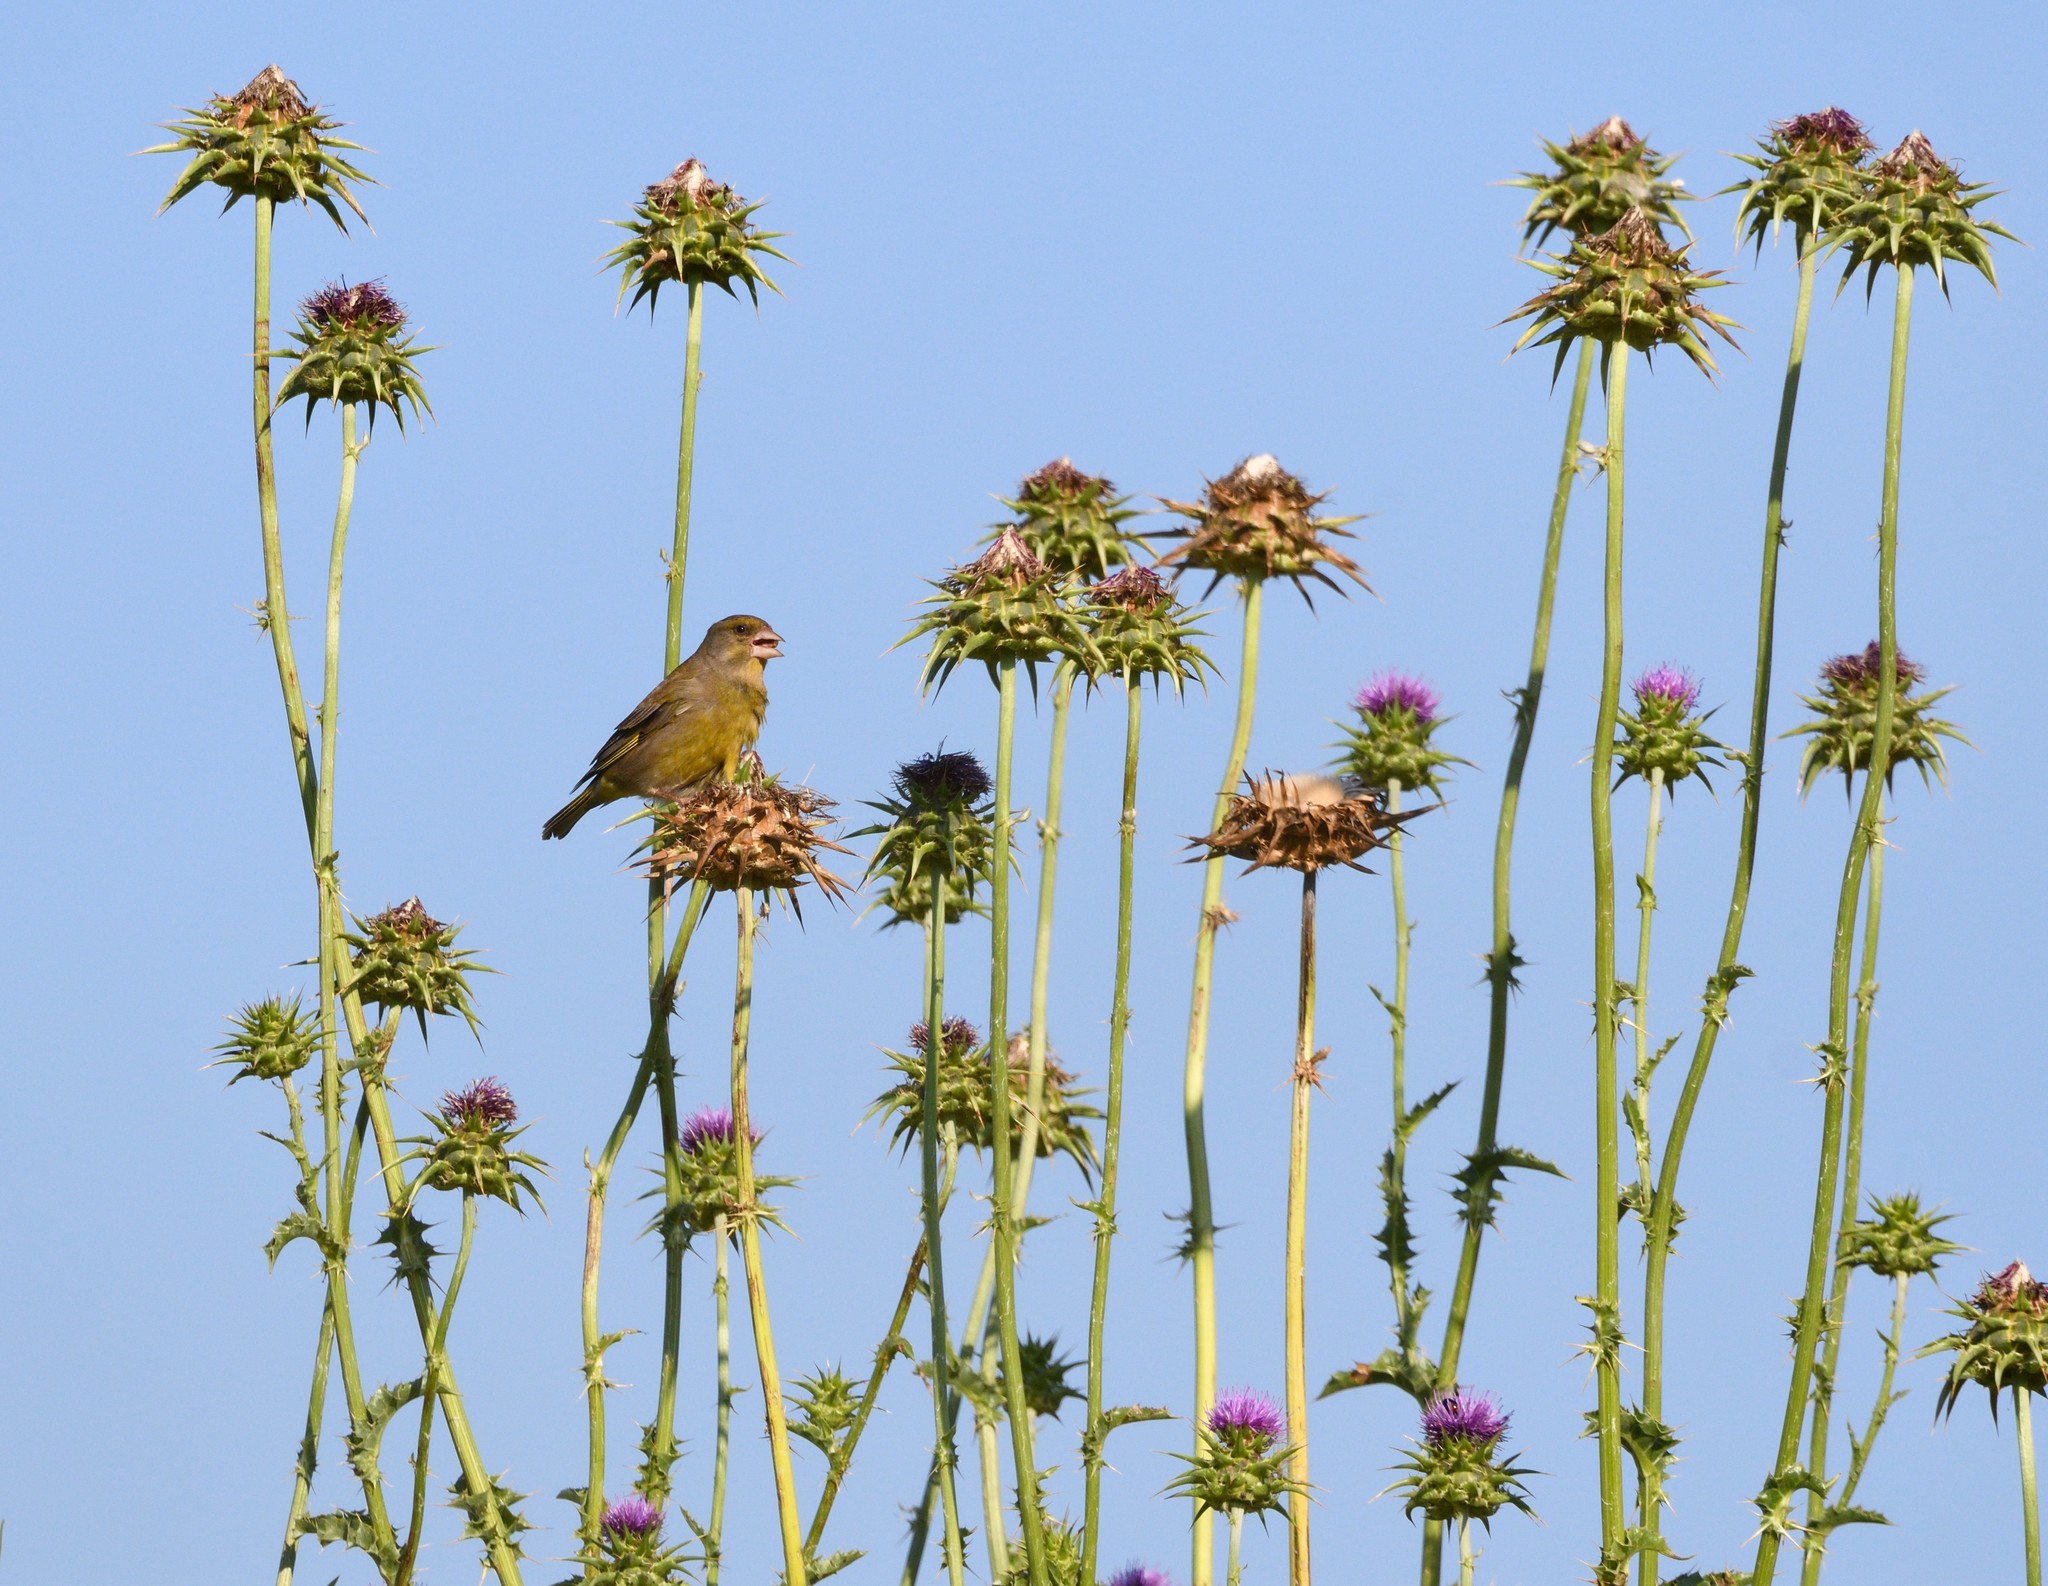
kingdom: Plantae
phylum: Tracheophyta
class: Liliopsida
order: Poales
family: Poaceae
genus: Chloris
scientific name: Chloris chloris
